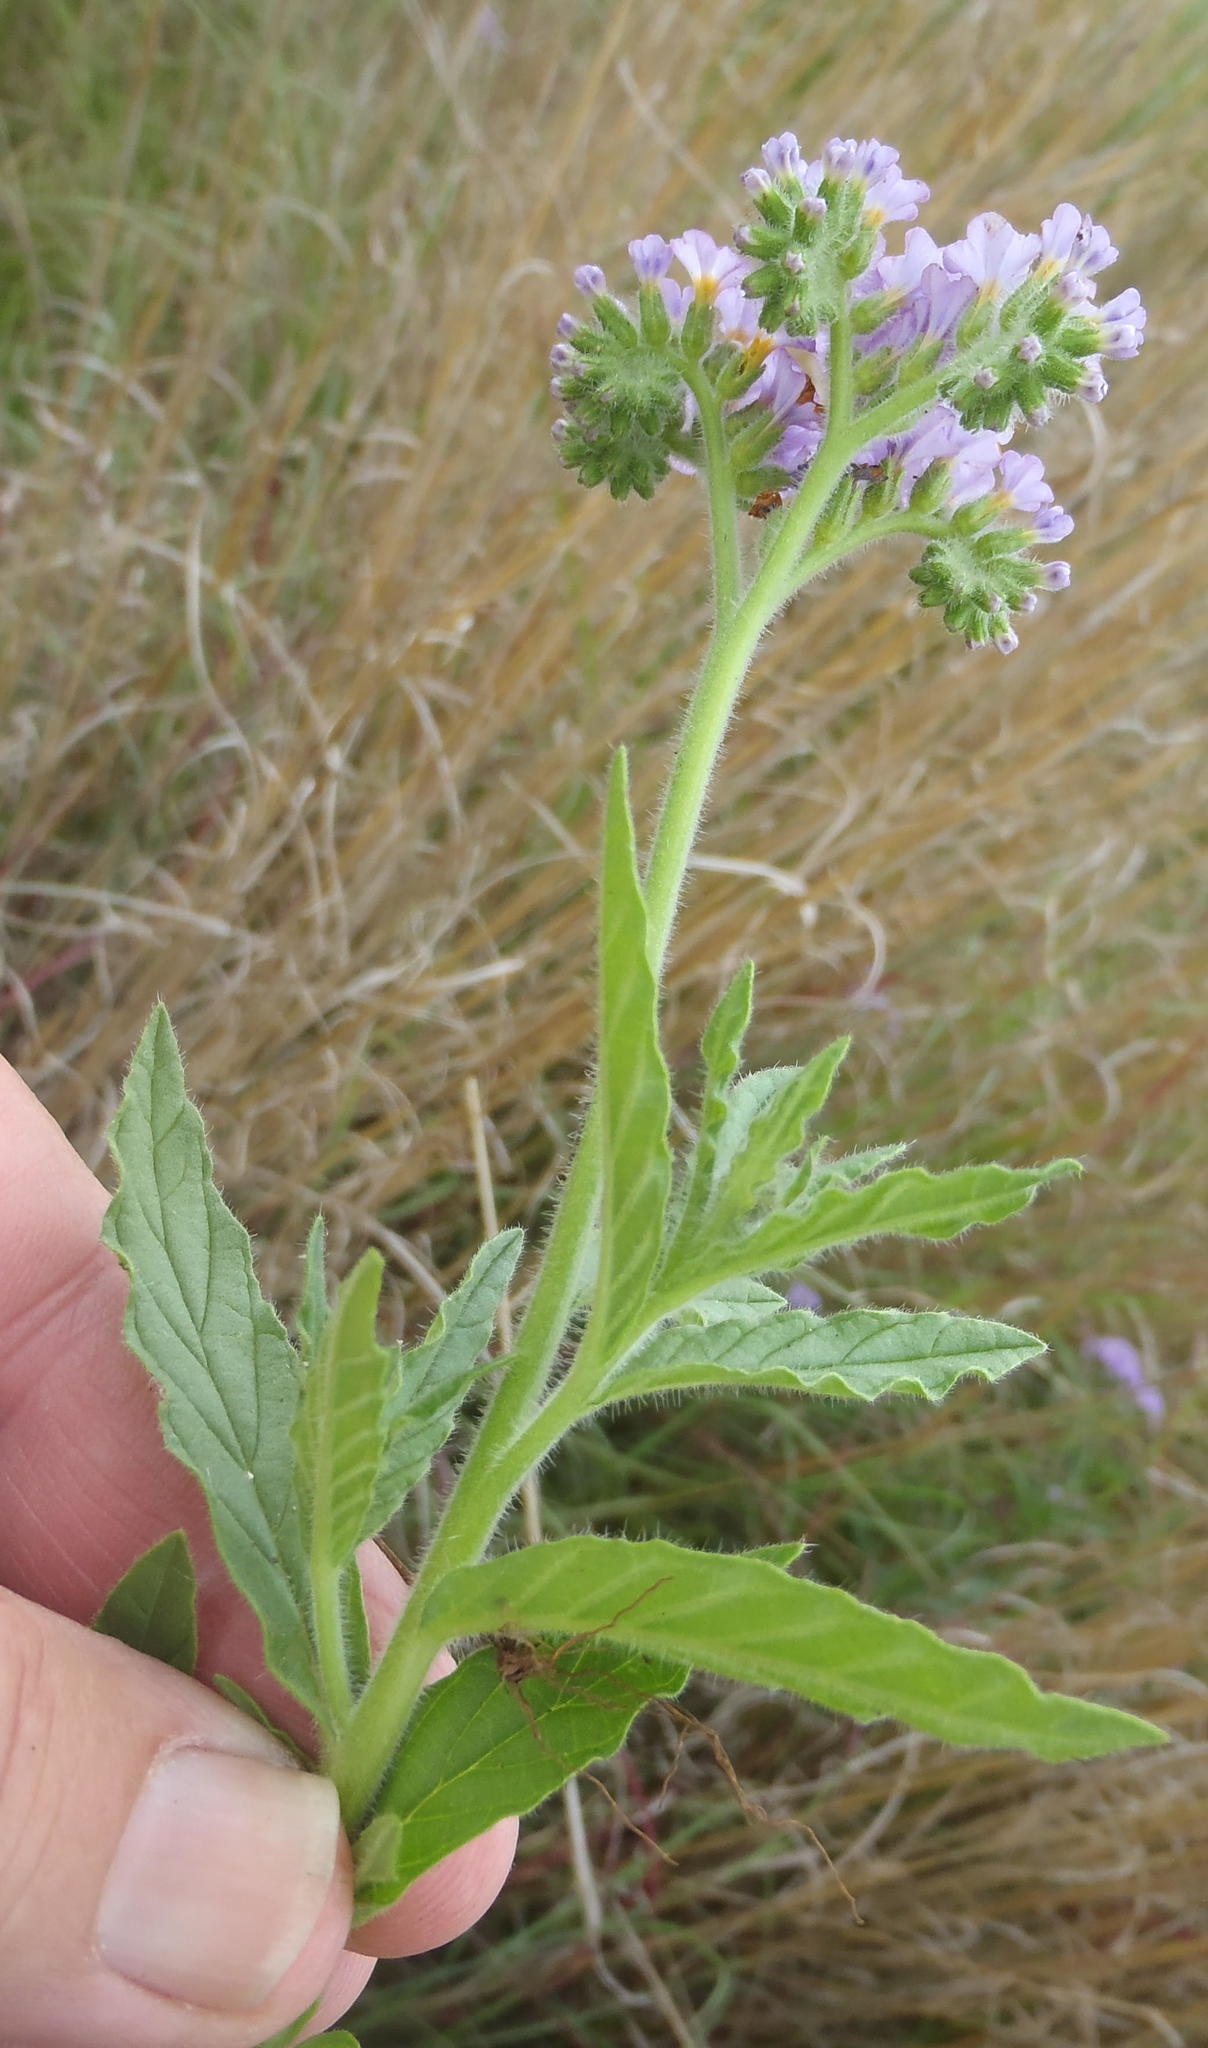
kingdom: Plantae
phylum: Tracheophyta
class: Magnoliopsida
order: Boraginales
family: Heliotropiaceae
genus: Heliotropium
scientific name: Heliotropium amplexicaule
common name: Clasping heliotrope
